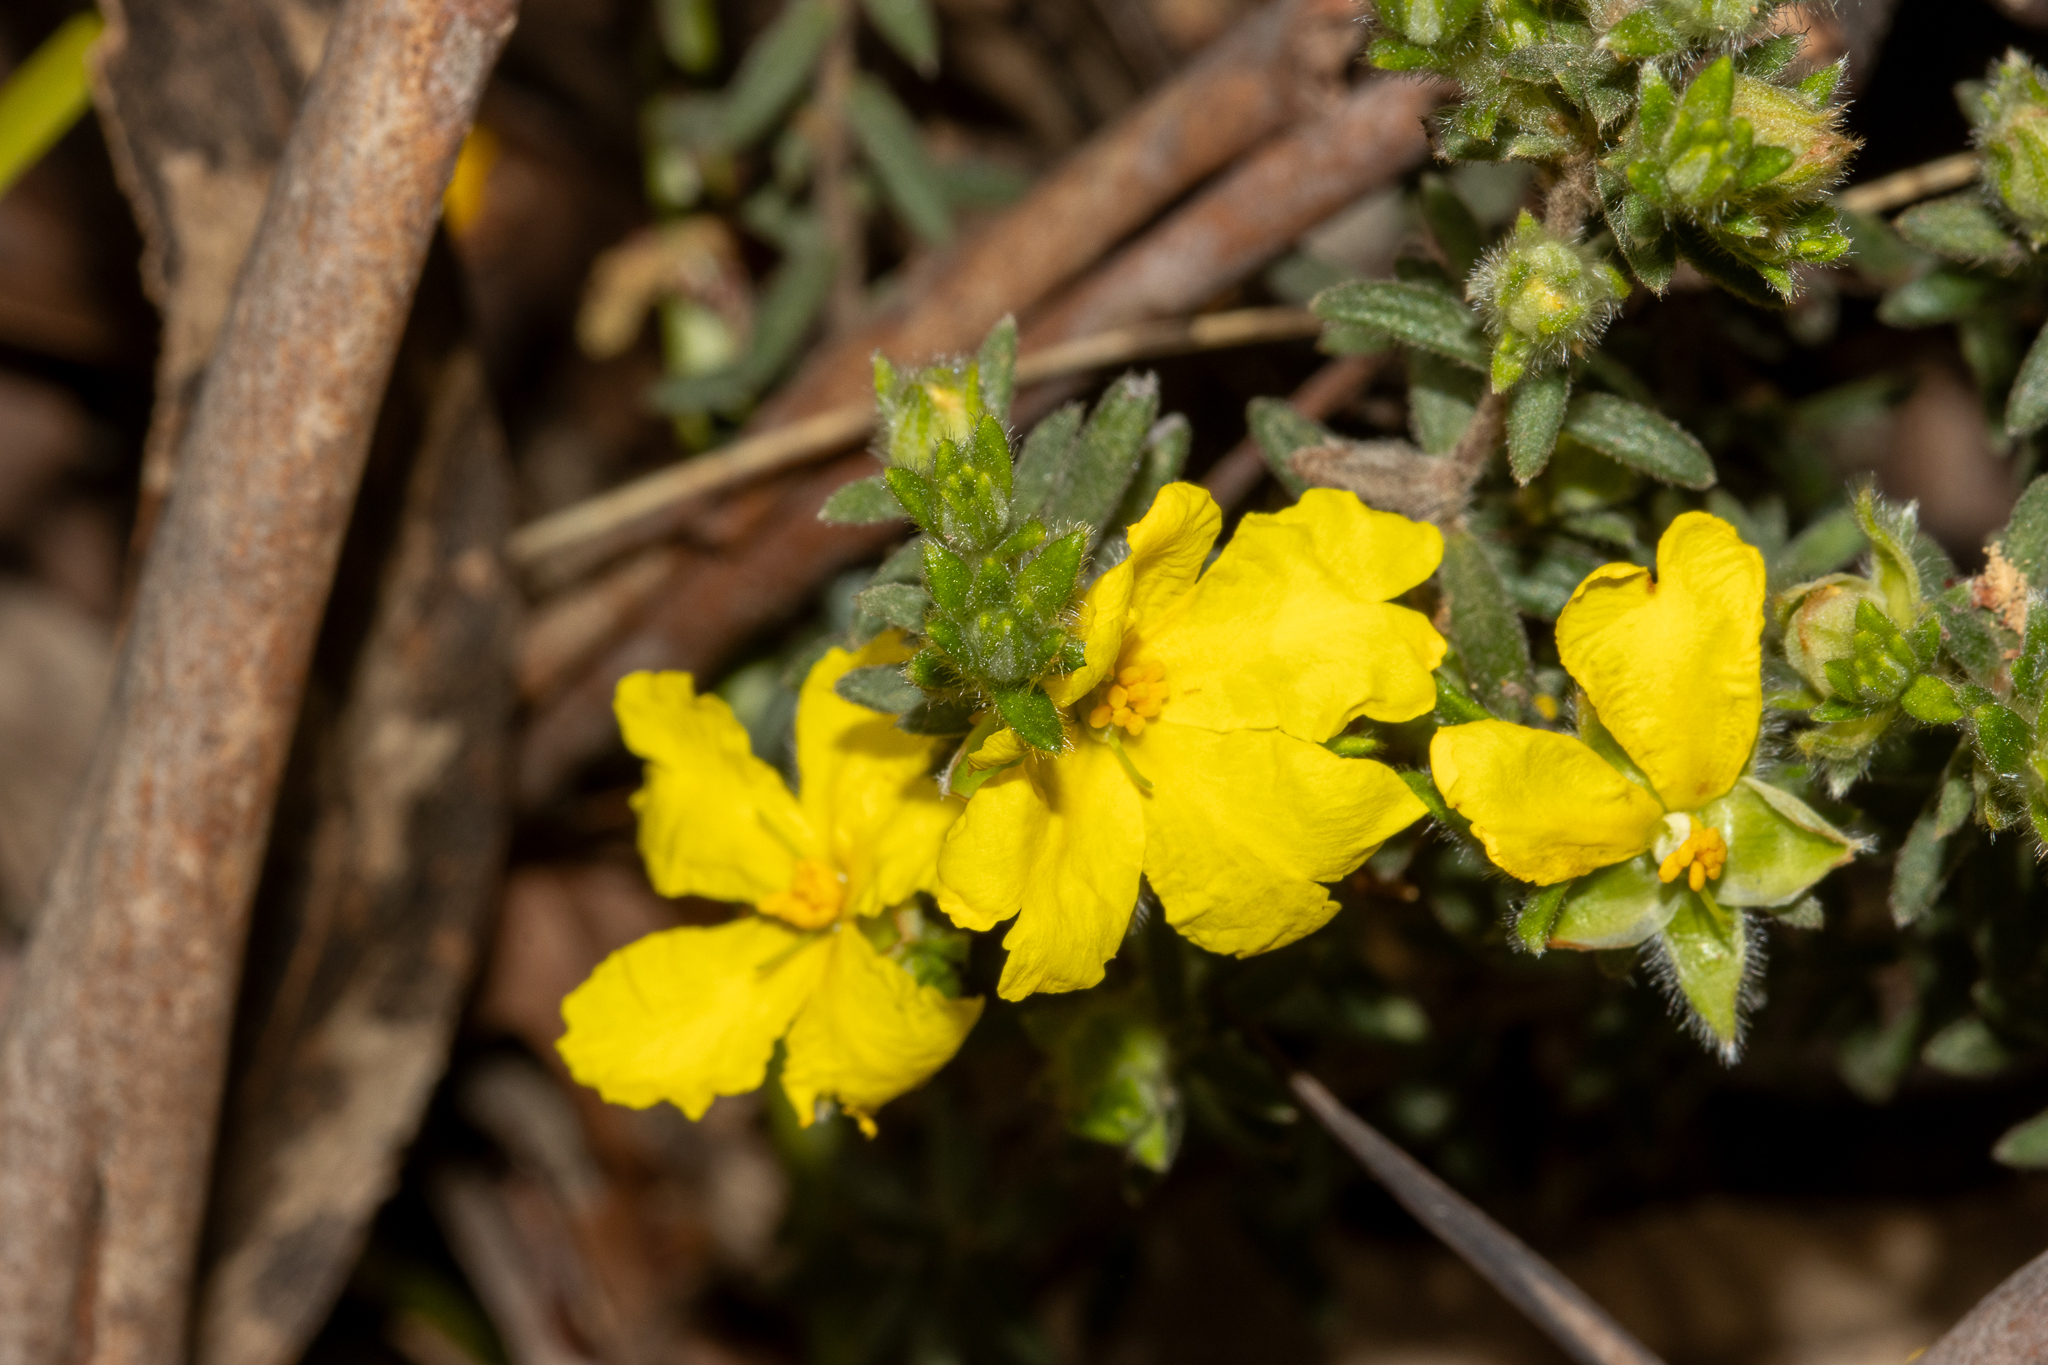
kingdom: Plantae
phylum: Tracheophyta
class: Magnoliopsida
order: Dilleniales
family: Dilleniaceae
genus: Hibbertia
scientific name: Hibbertia crinita
